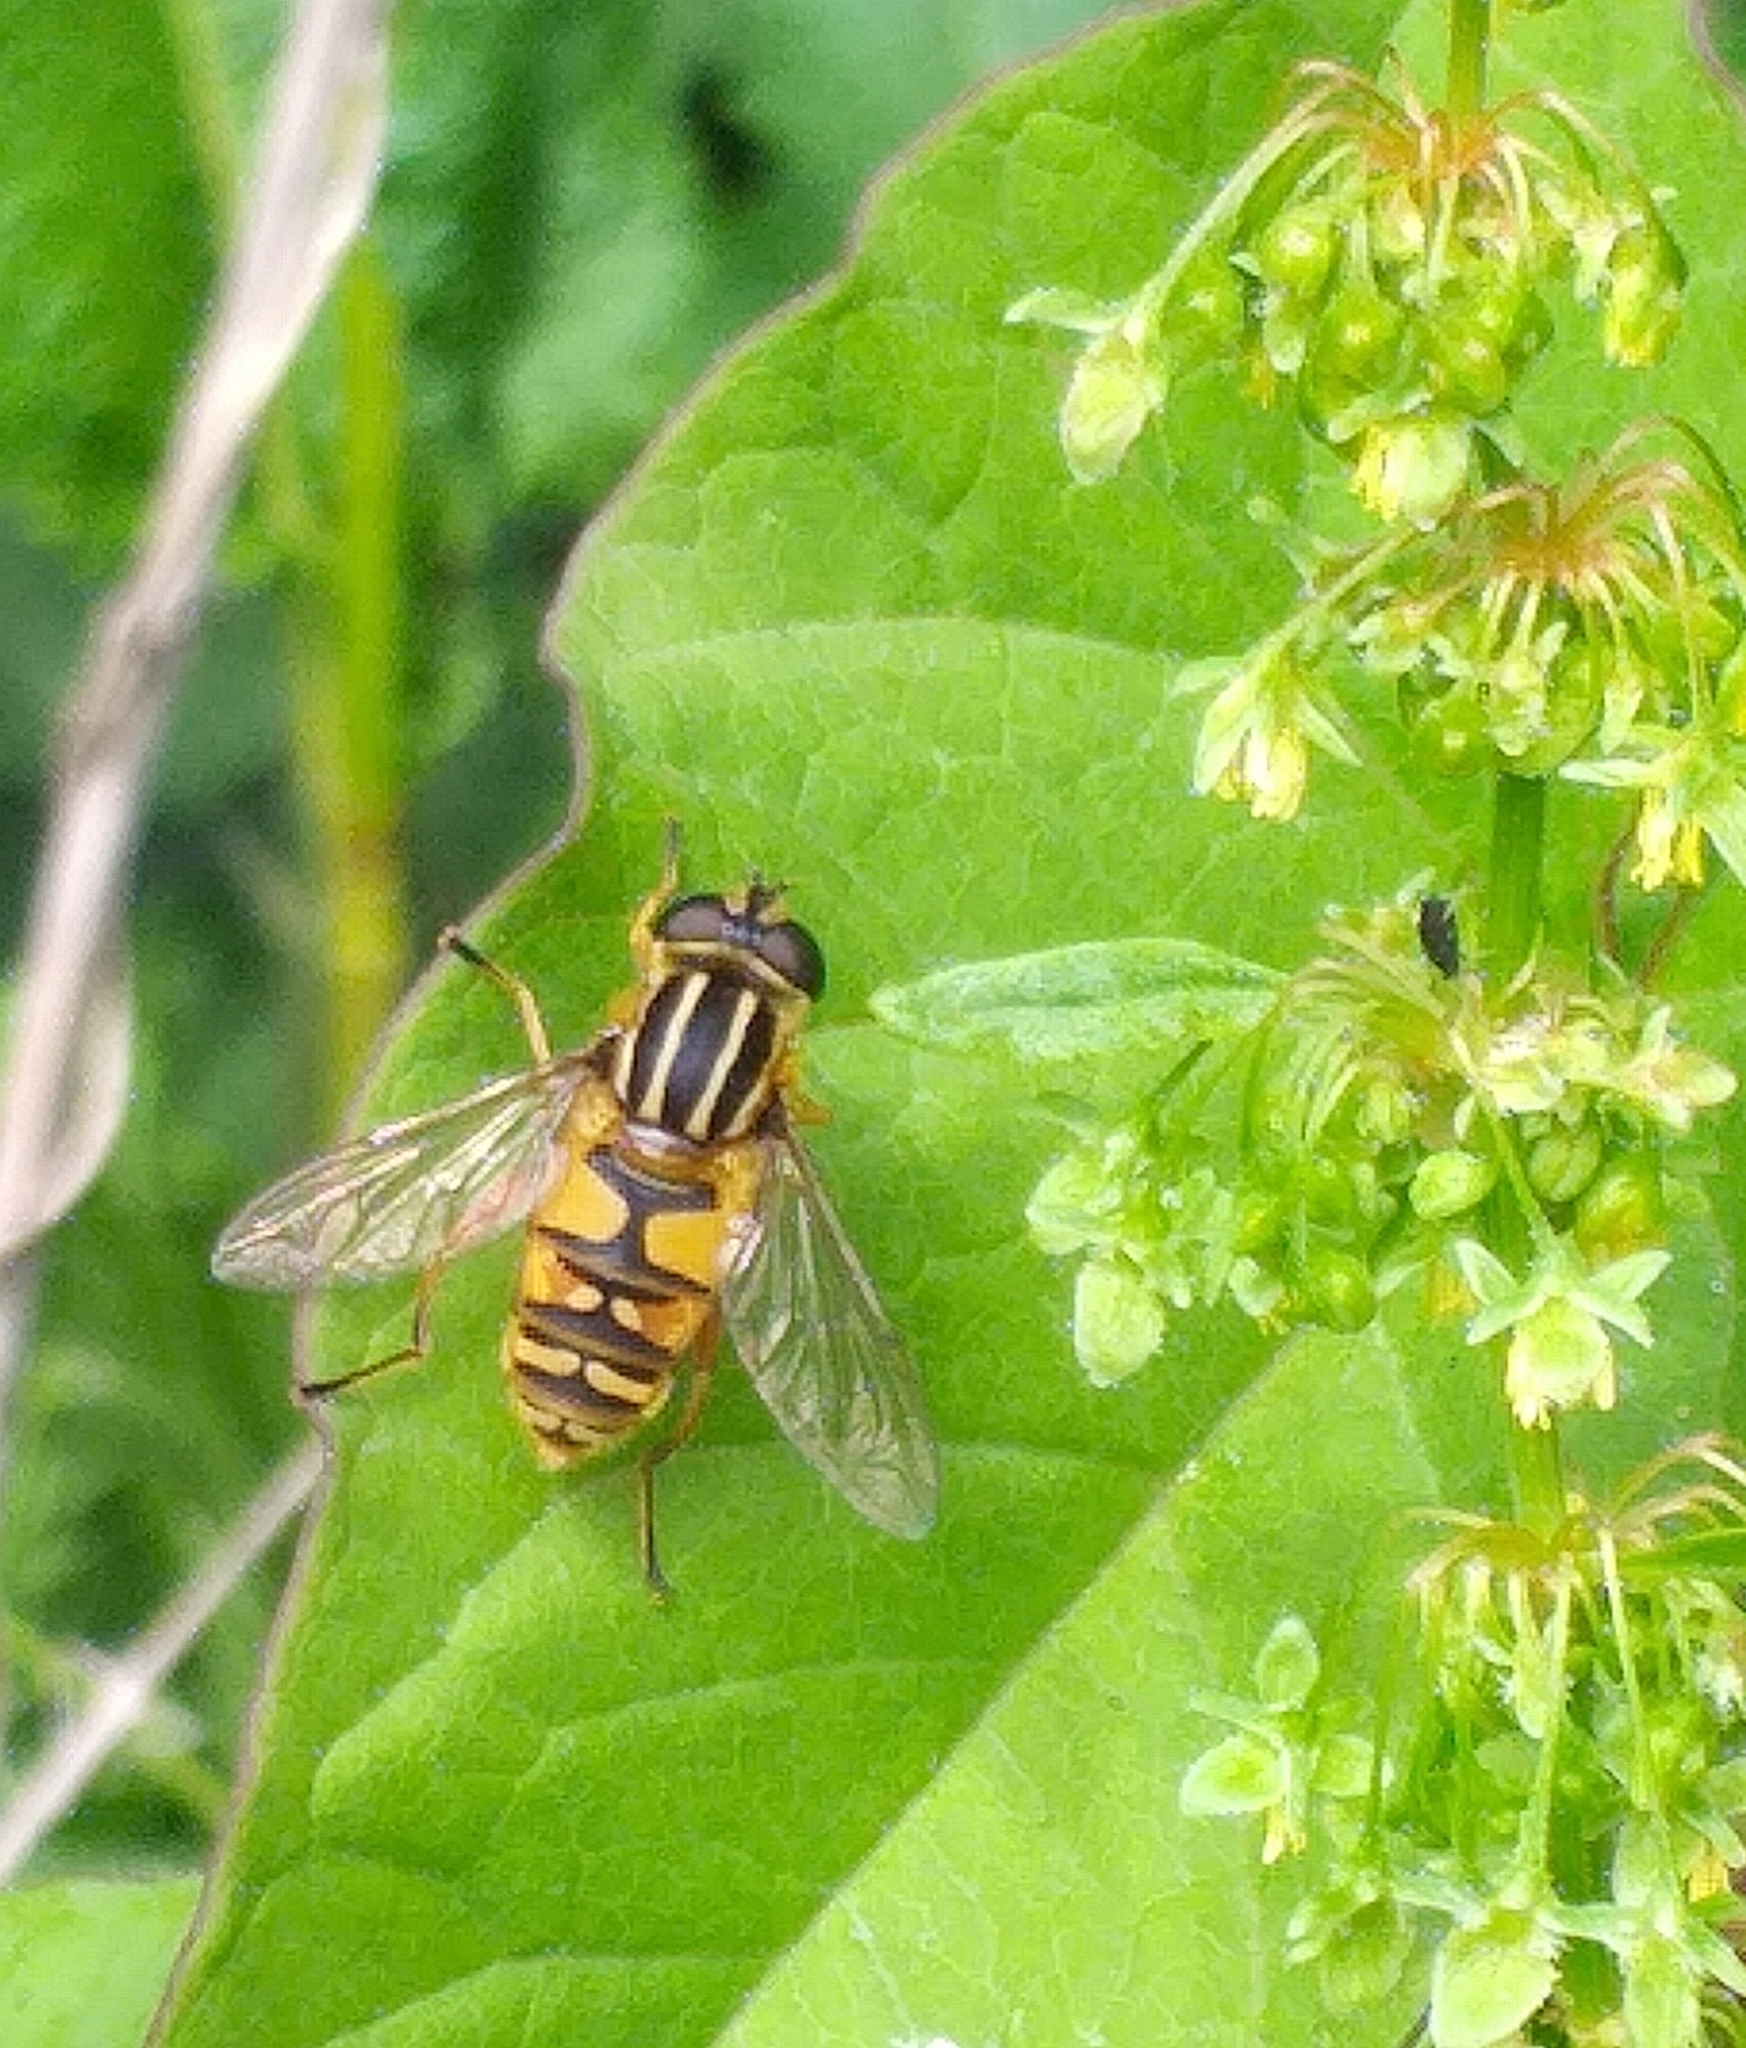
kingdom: Animalia
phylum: Arthropoda
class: Insecta
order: Diptera
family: Syrphidae
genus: Helophilus
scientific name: Helophilus pendulus
